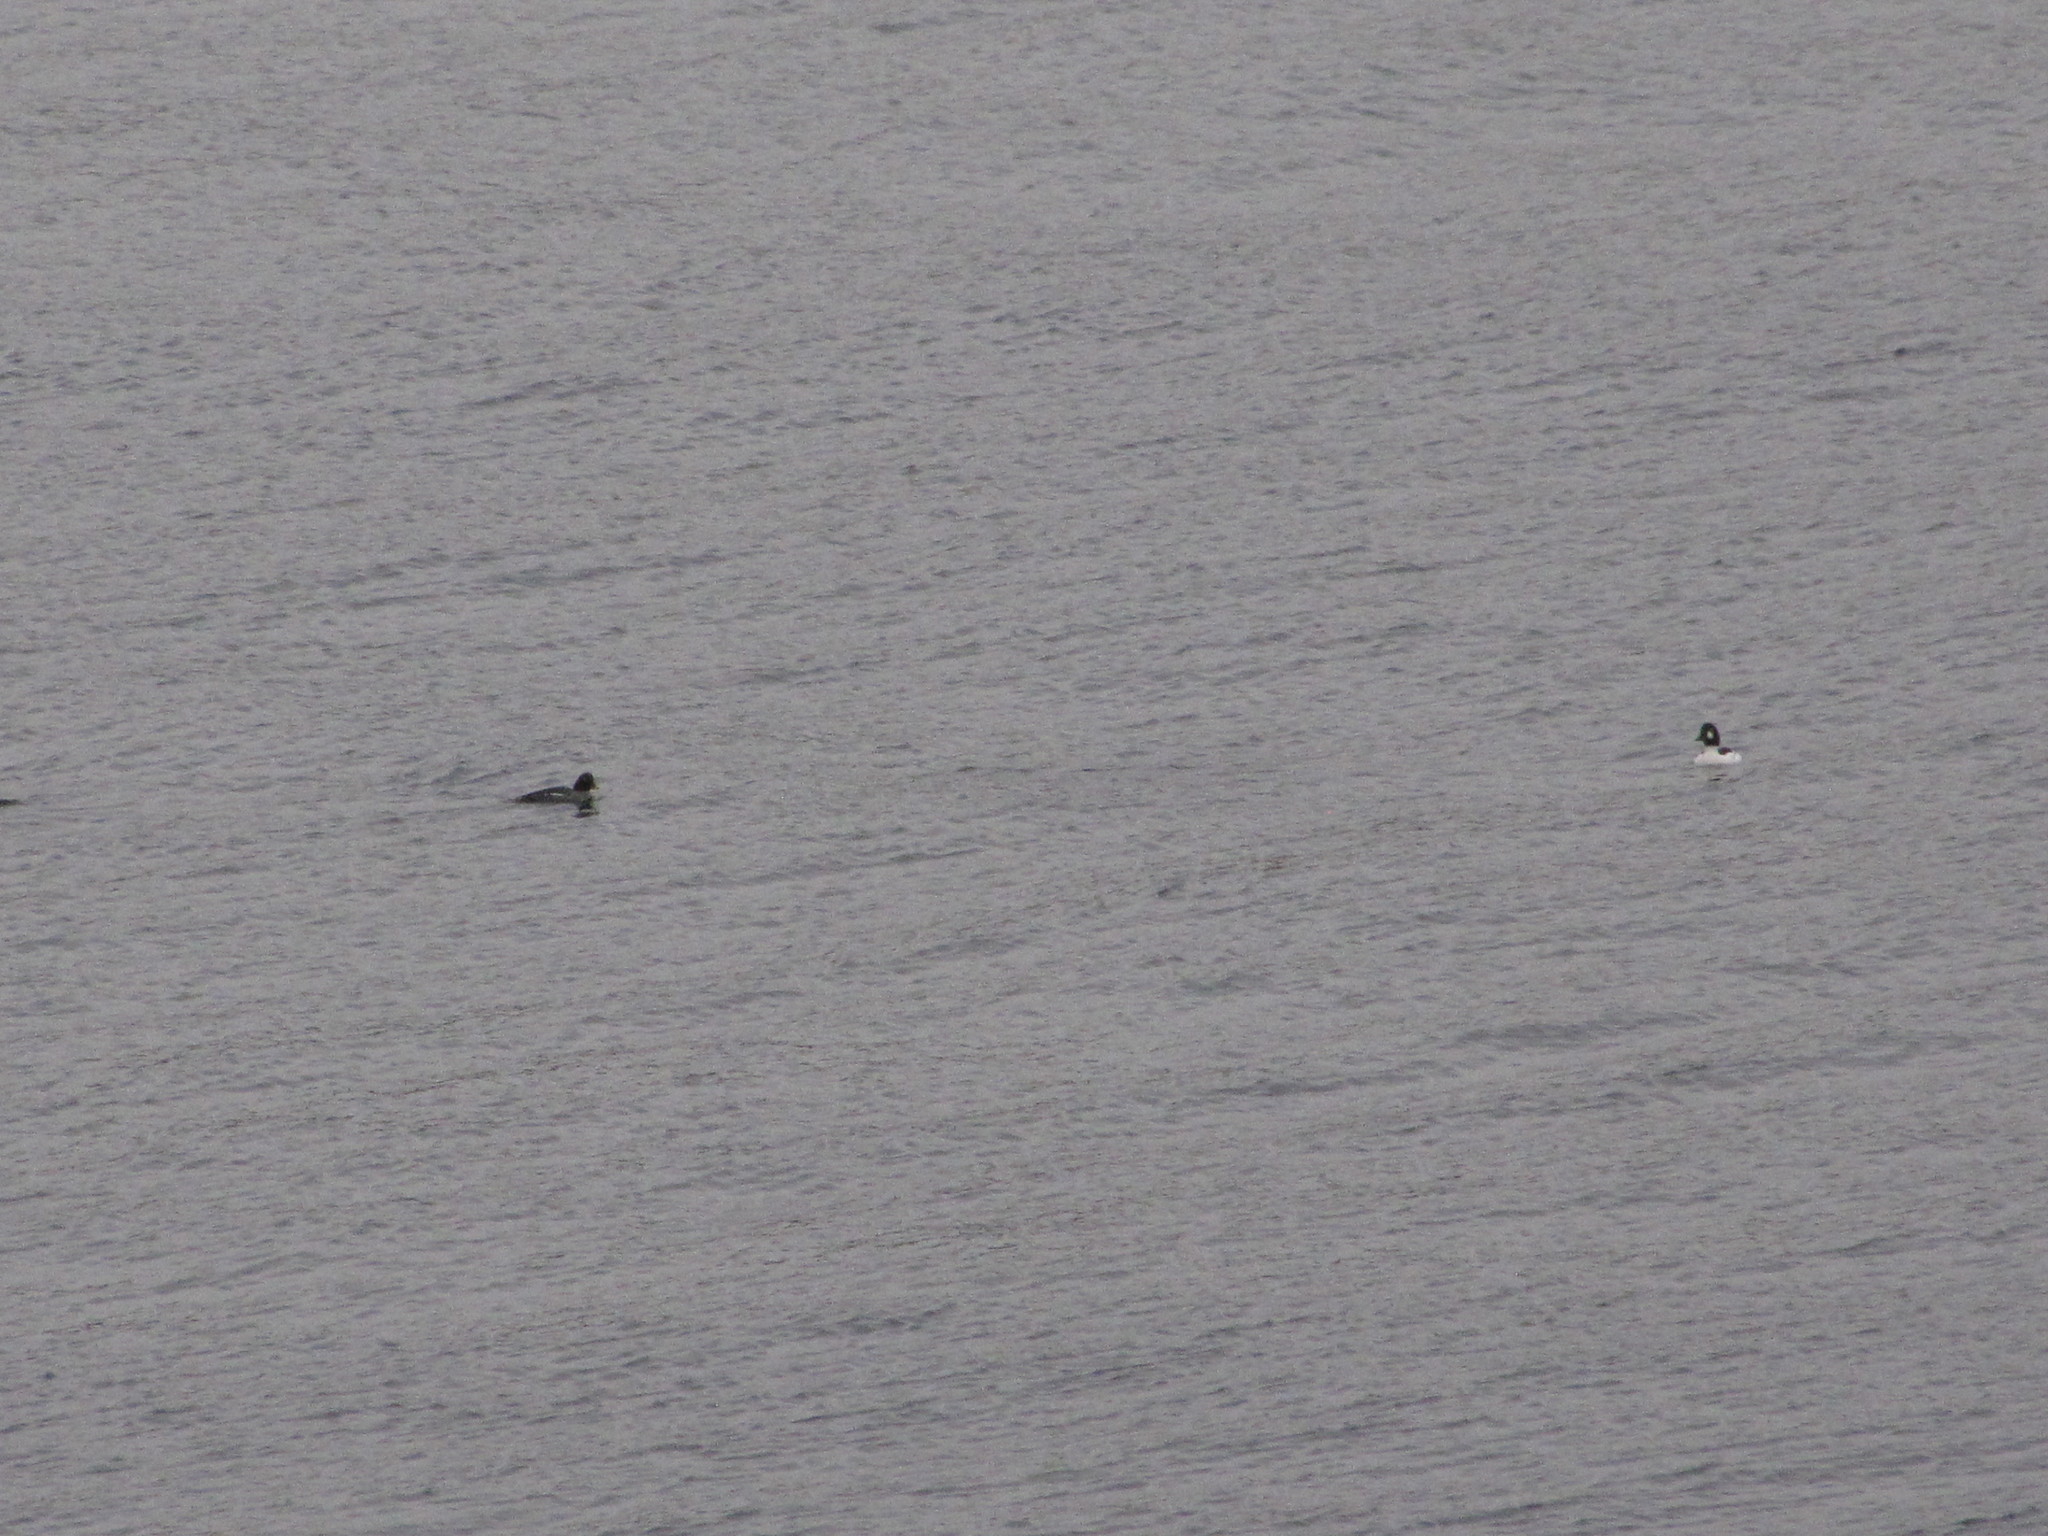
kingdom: Animalia
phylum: Chordata
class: Aves
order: Anseriformes
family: Anatidae
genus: Bucephala
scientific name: Bucephala clangula
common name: Common goldeneye
